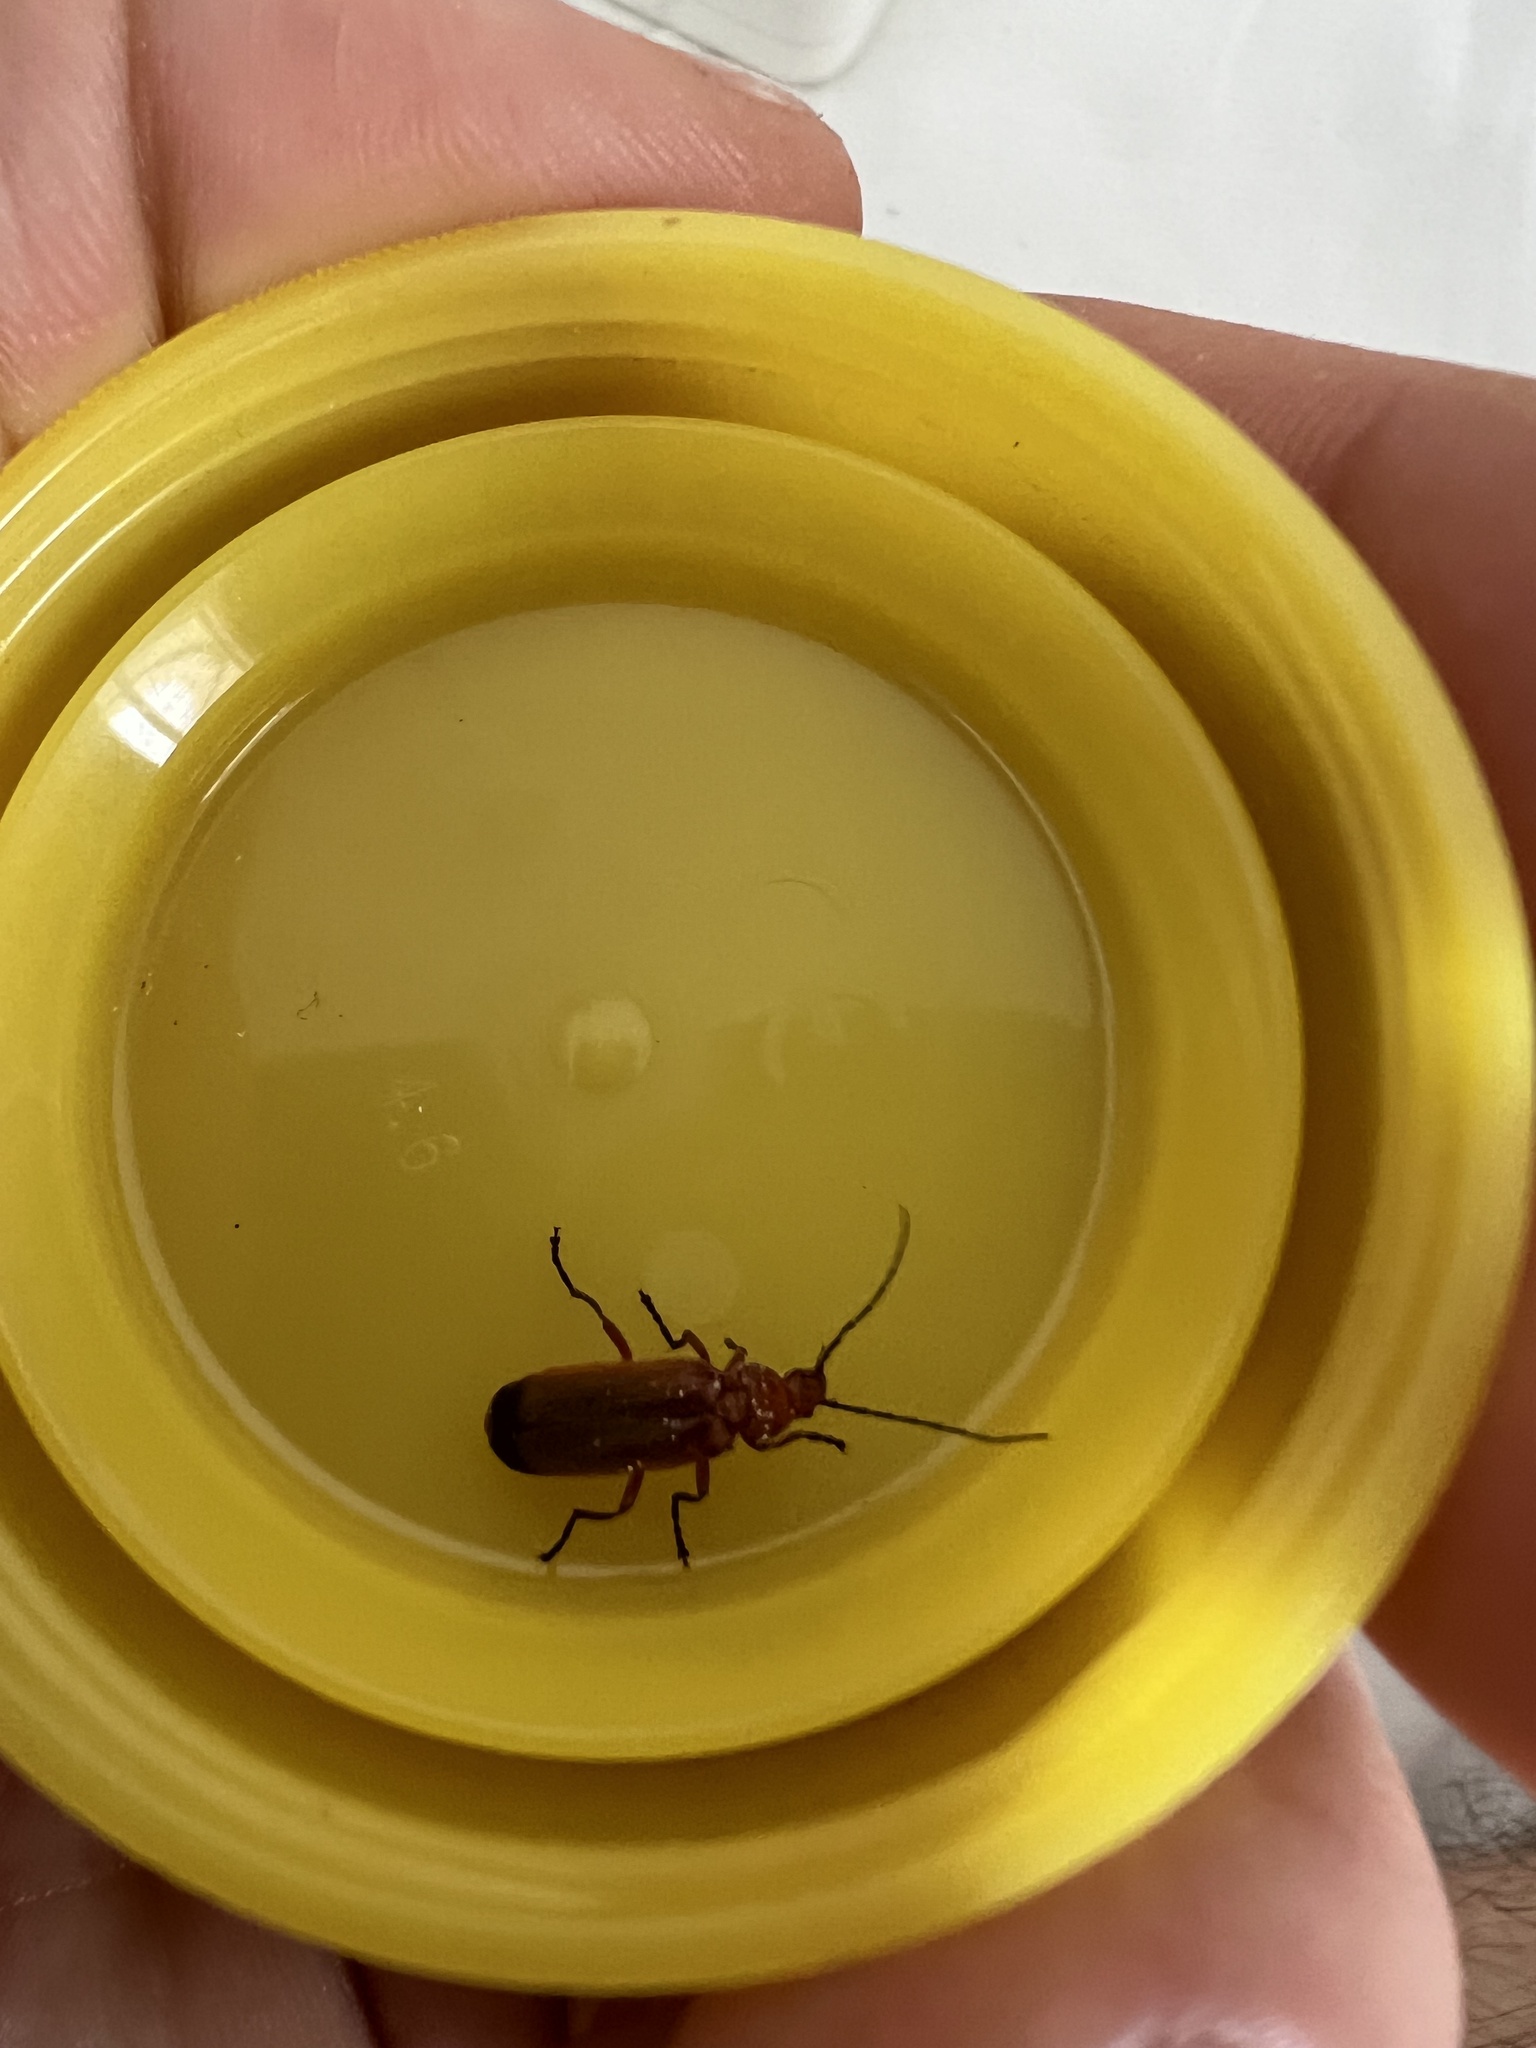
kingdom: Animalia
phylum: Arthropoda
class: Insecta
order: Coleoptera
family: Cantharidae
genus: Rhagonycha
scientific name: Rhagonycha fulva
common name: Common red soldier beetle
